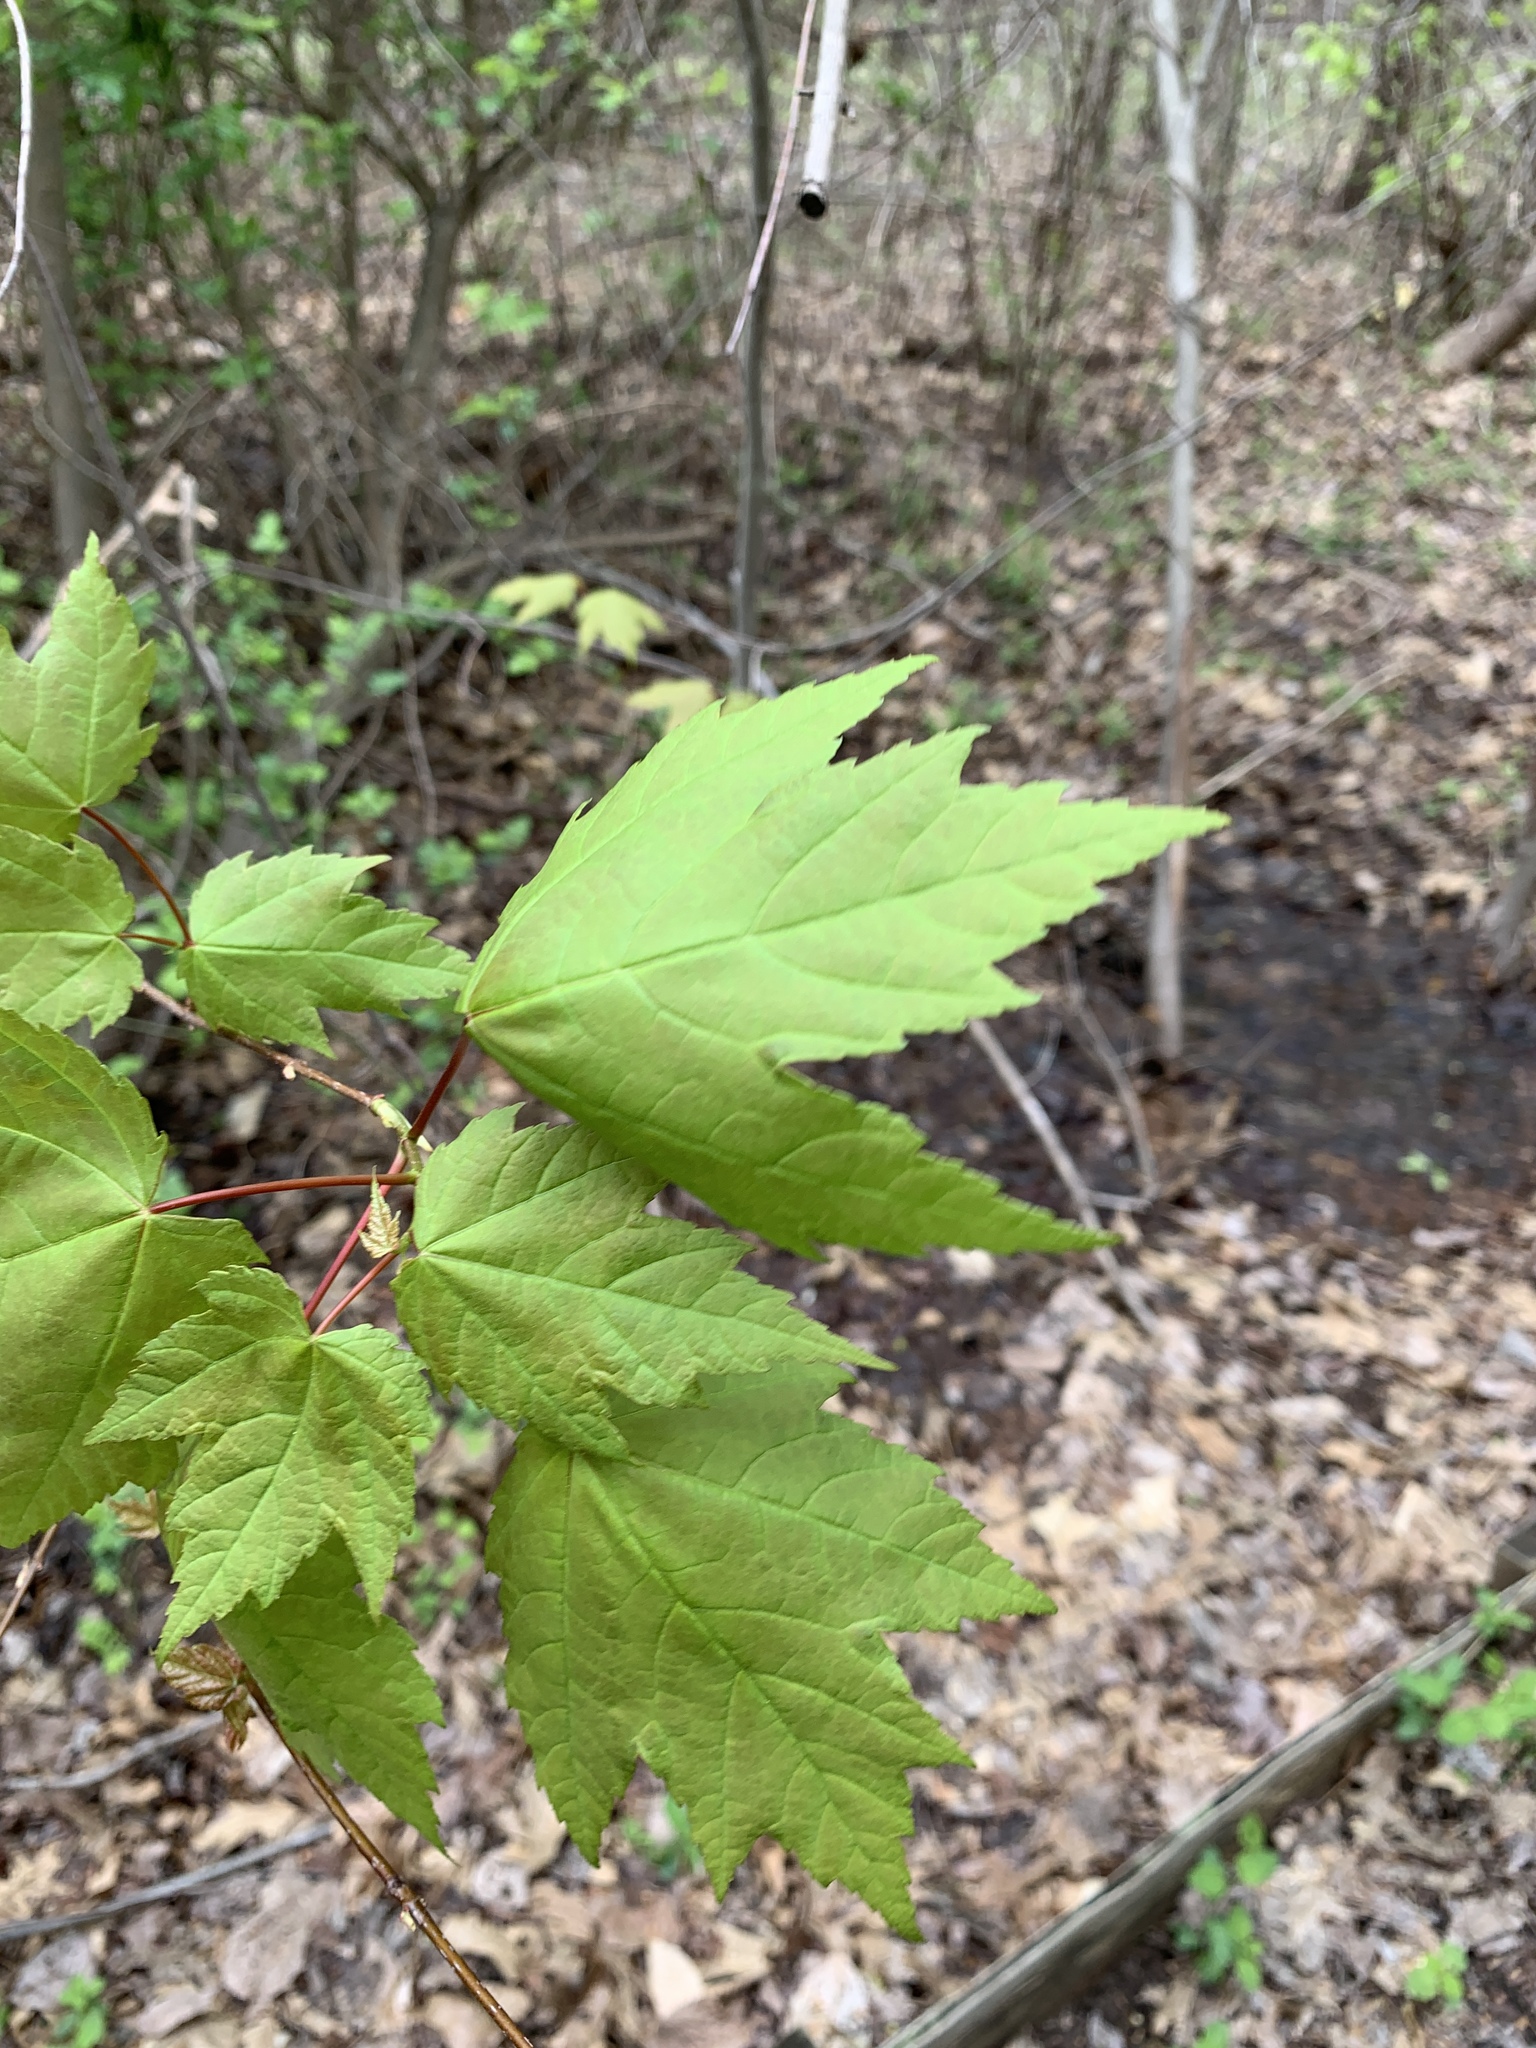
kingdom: Plantae
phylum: Tracheophyta
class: Magnoliopsida
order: Sapindales
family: Sapindaceae
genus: Acer
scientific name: Acer rubrum
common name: Red maple
